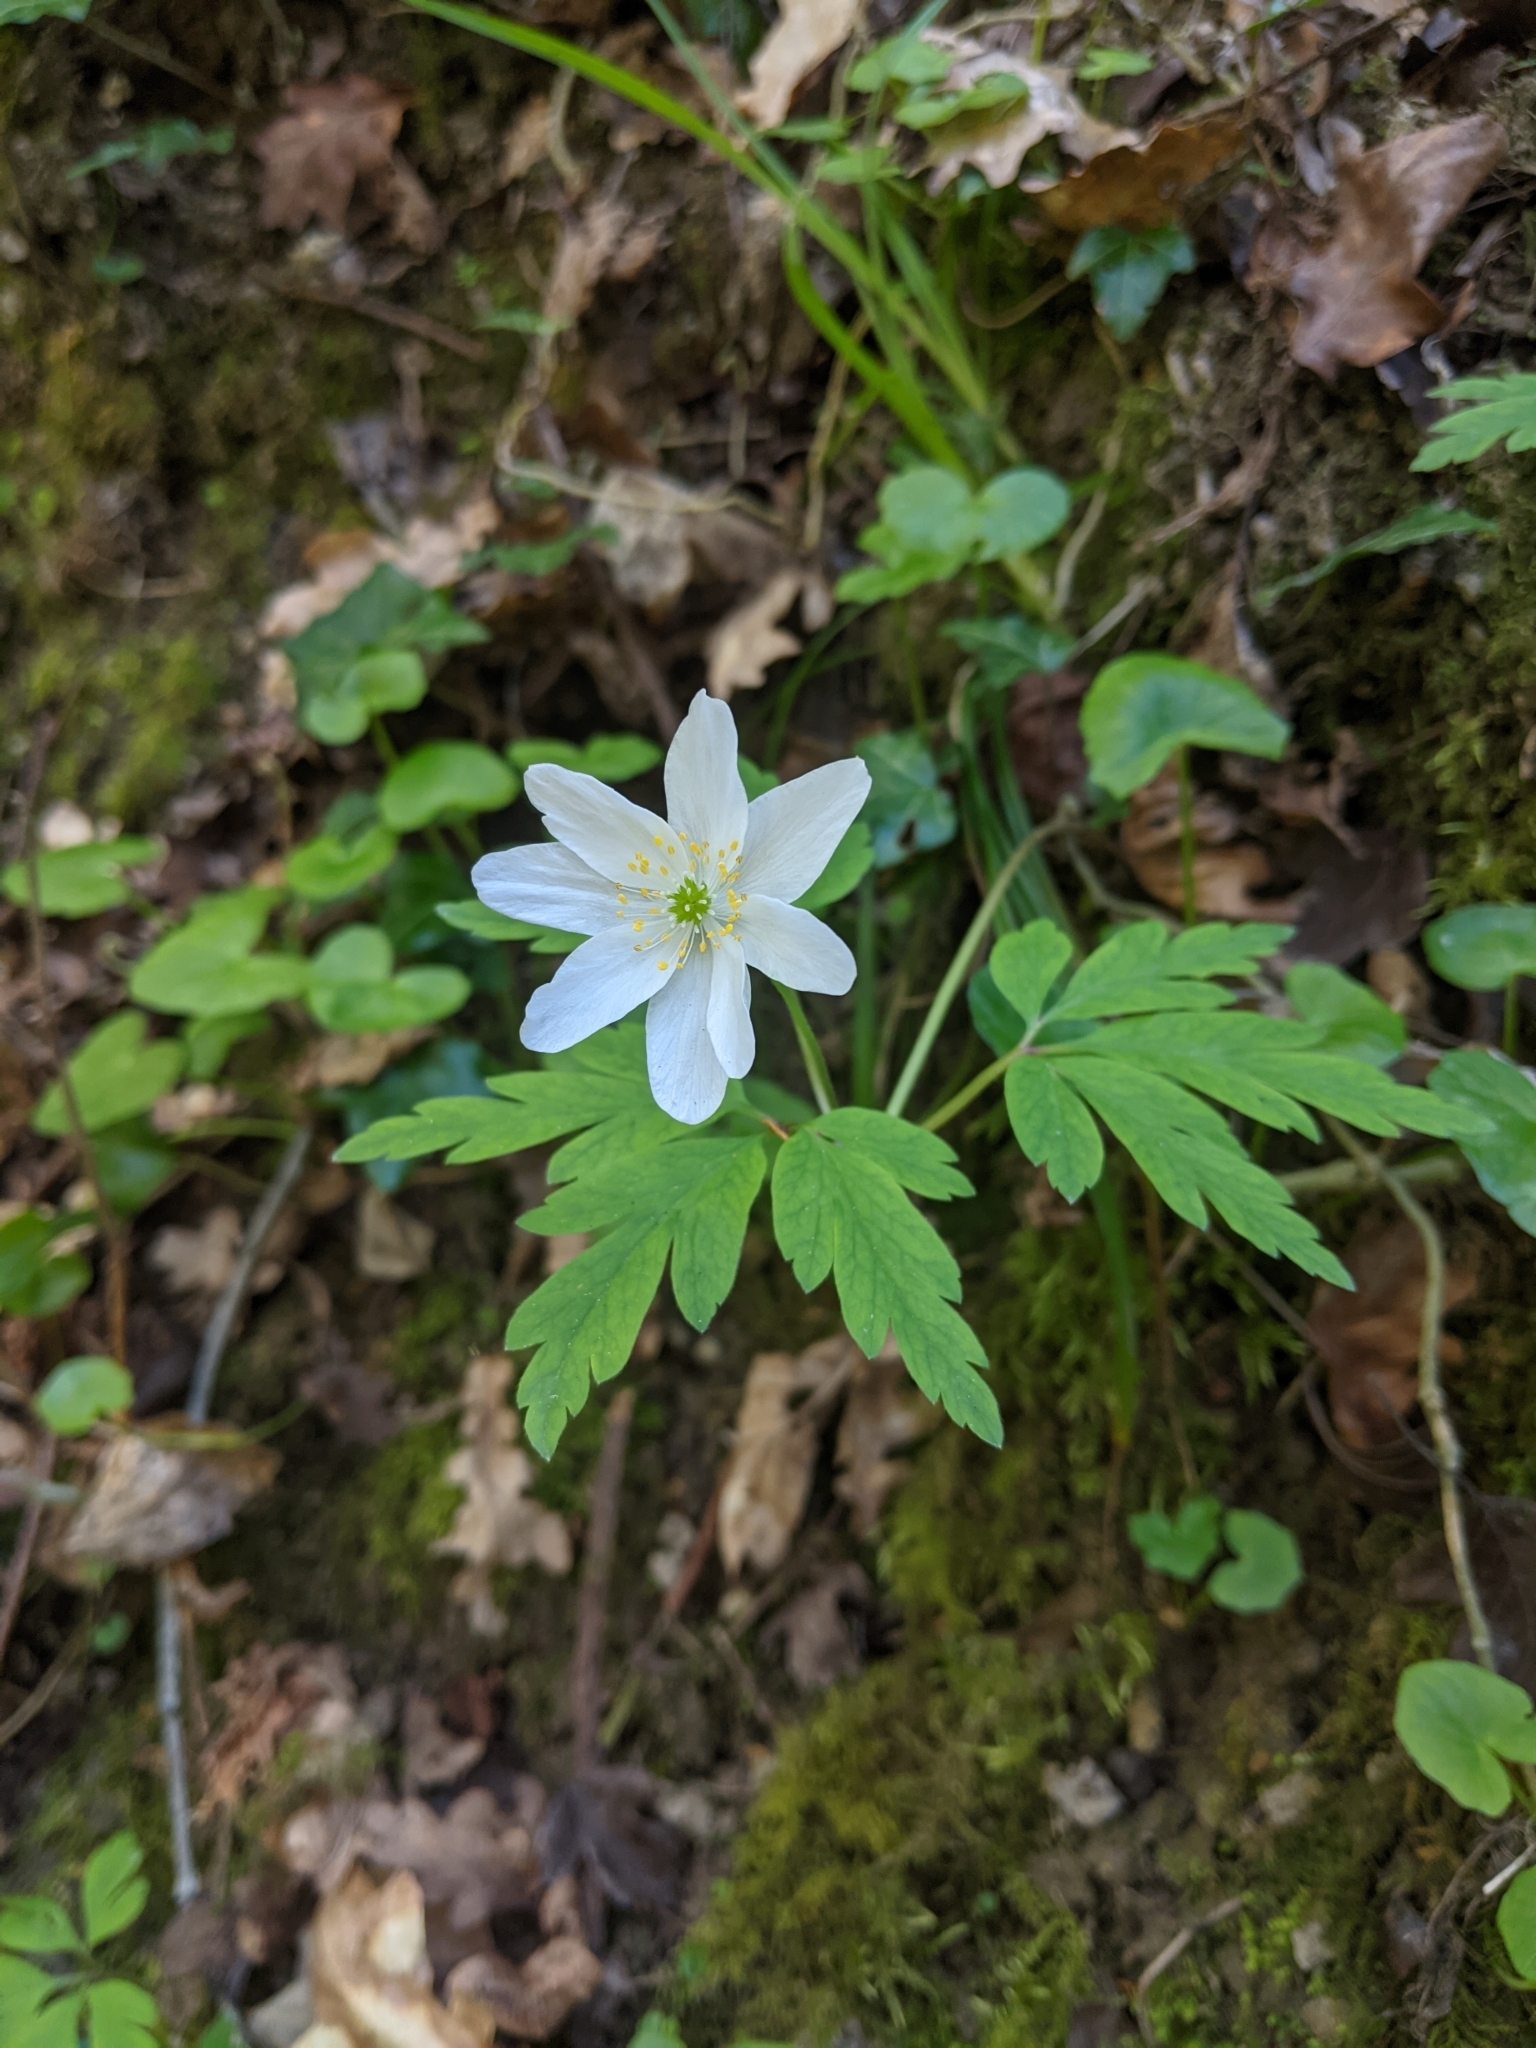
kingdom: Plantae
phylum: Tracheophyta
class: Magnoliopsida
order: Ranunculales
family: Ranunculaceae
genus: Anemone
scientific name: Anemone nemorosa
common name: Wood anemone
